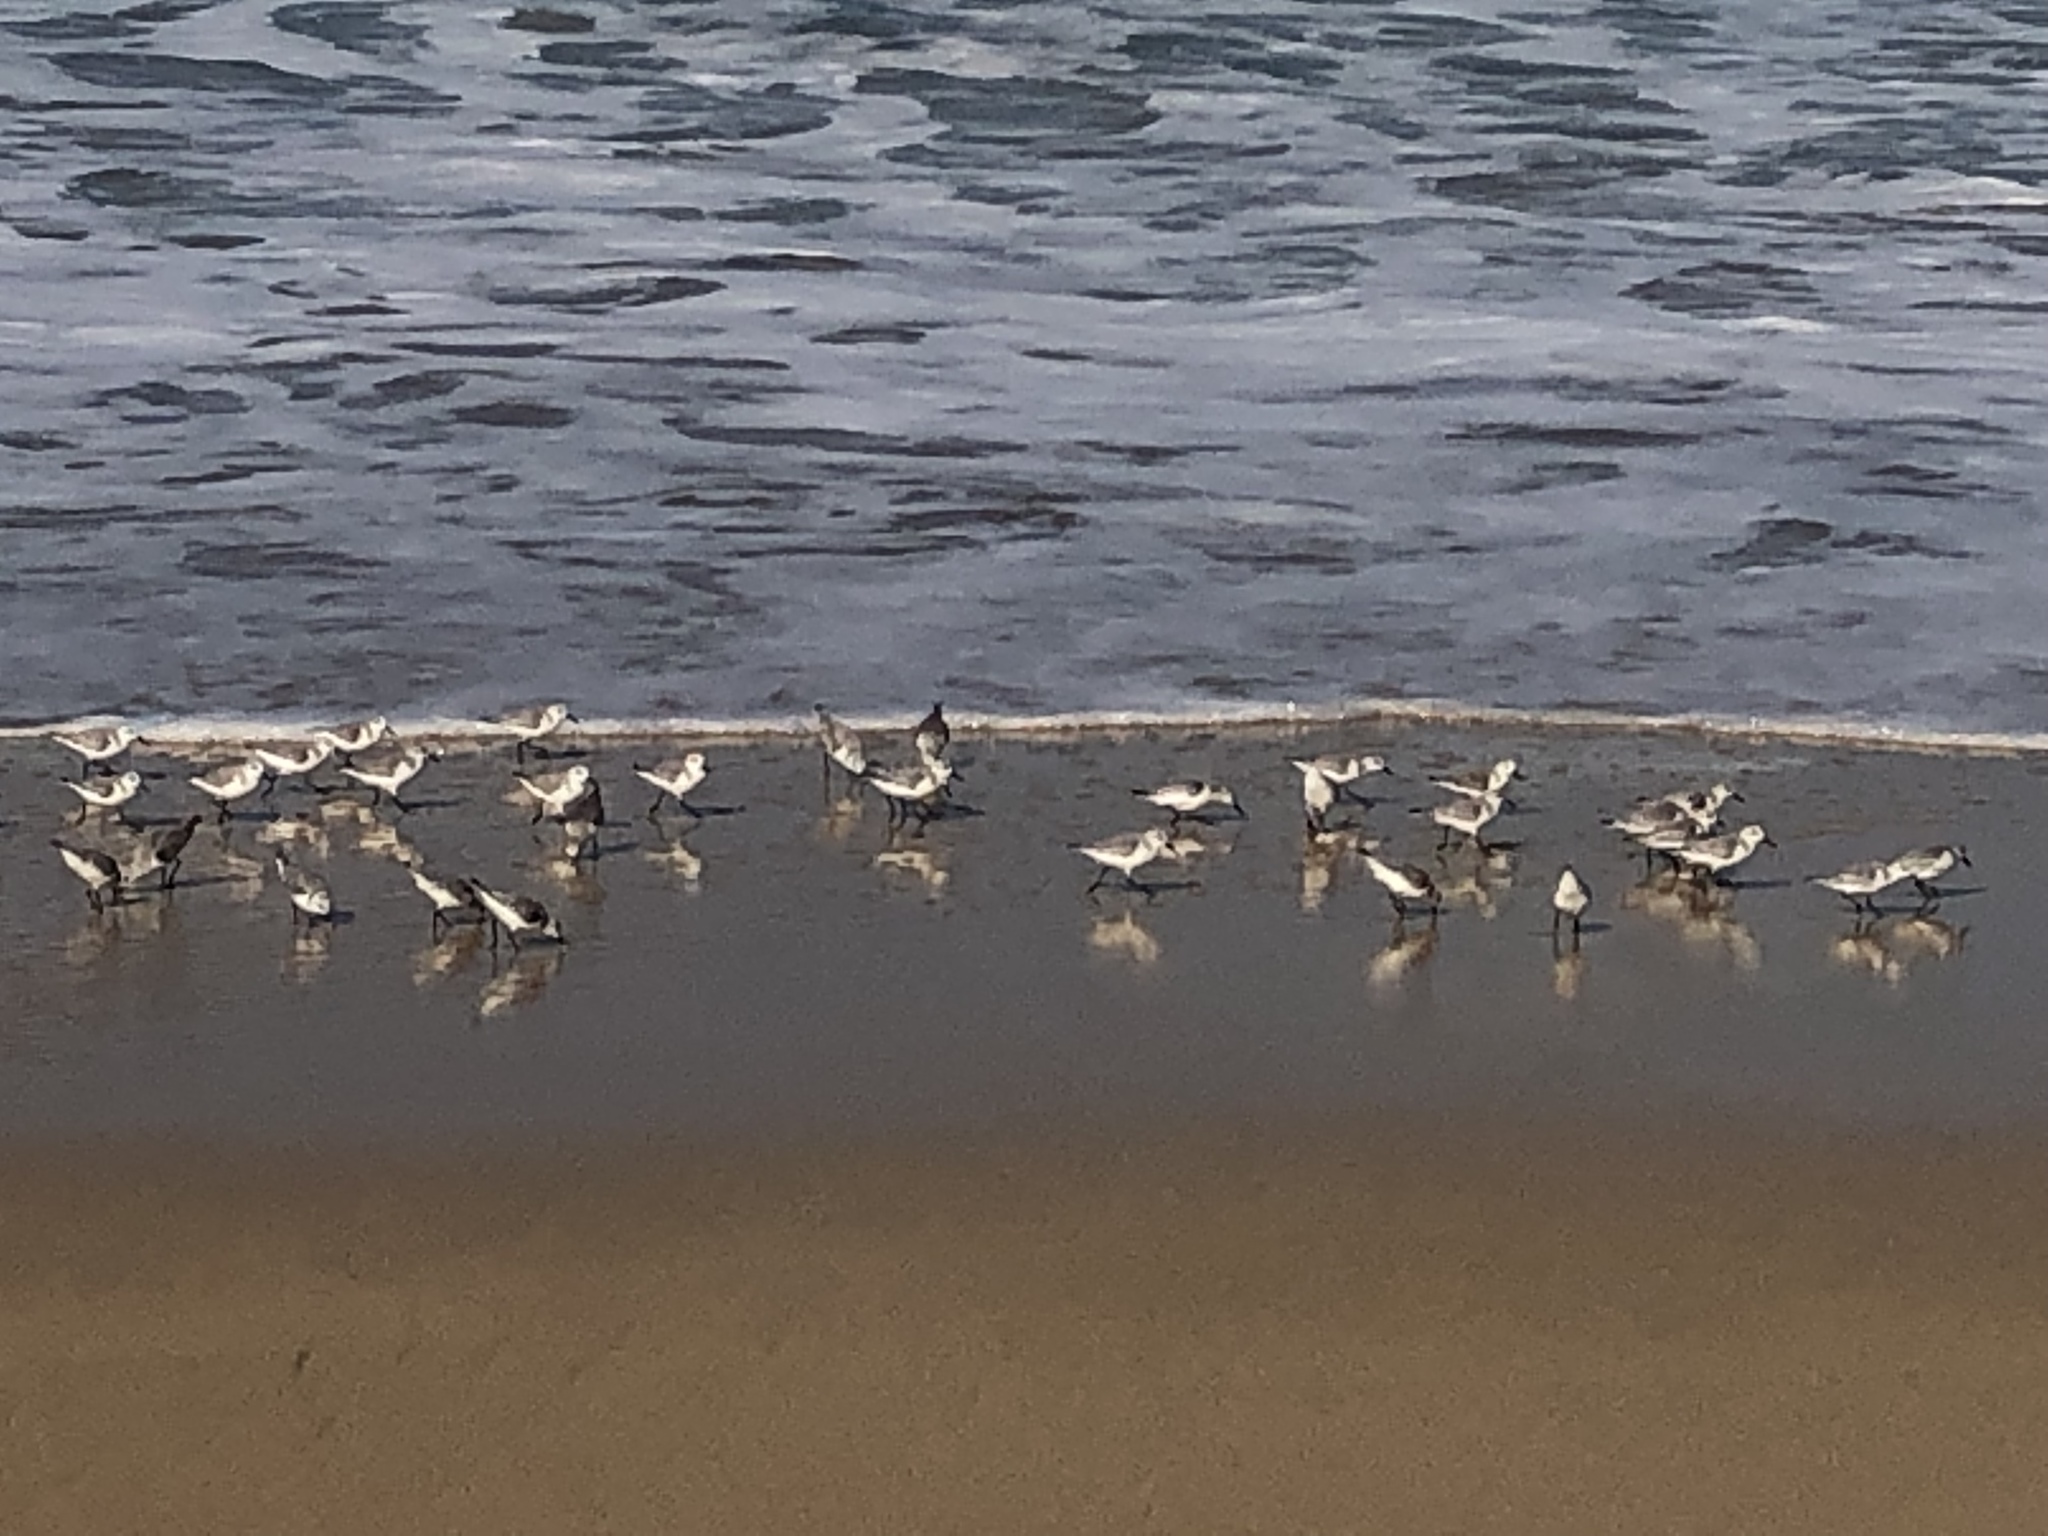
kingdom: Animalia
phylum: Chordata
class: Aves
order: Charadriiformes
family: Scolopacidae
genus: Calidris
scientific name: Calidris alba
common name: Sanderling
